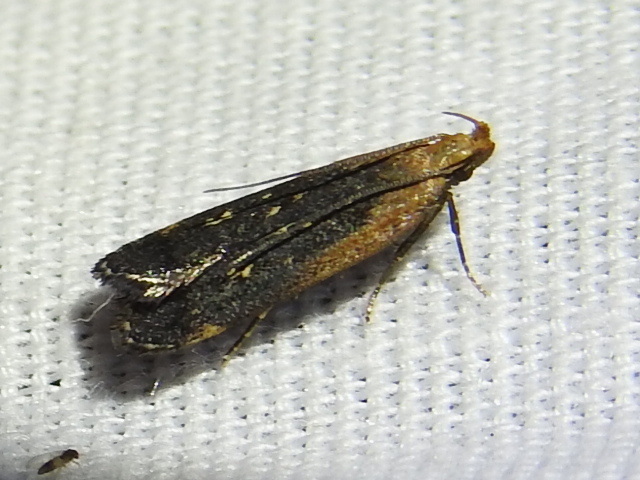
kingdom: Animalia
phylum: Arthropoda
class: Insecta
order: Lepidoptera
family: Gelechiidae
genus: Dichomeris
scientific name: Dichomeris costarufoella
